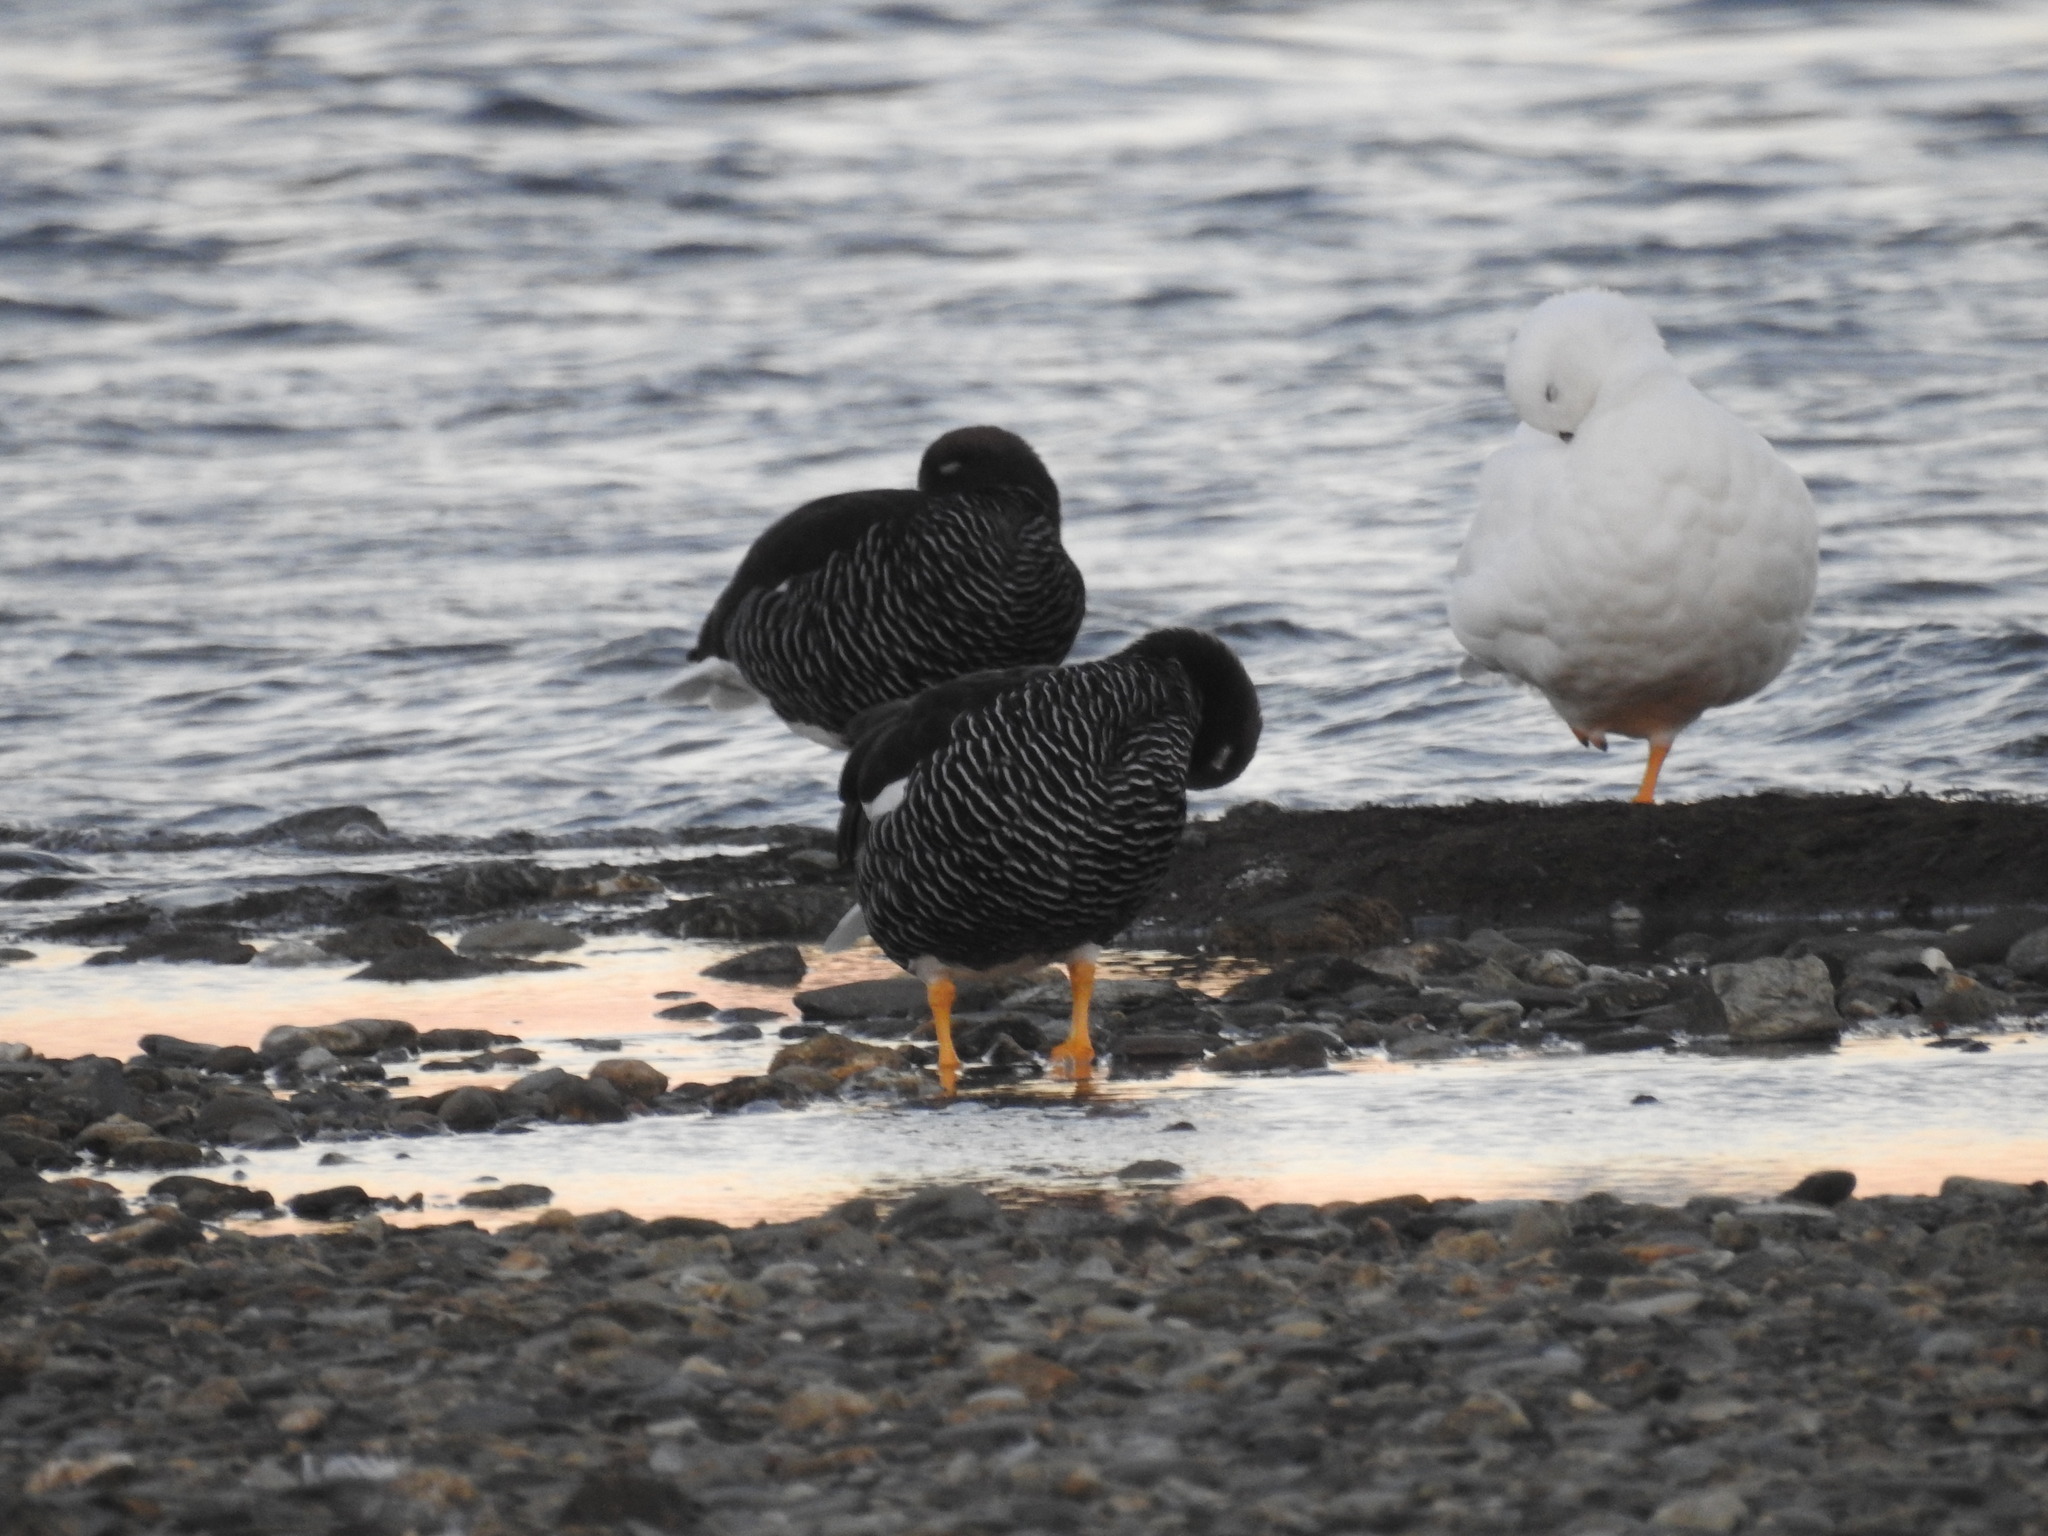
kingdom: Animalia
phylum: Chordata
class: Aves
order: Anseriformes
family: Anatidae
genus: Chloephaga
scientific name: Chloephaga hybrida
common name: Kelp goose
